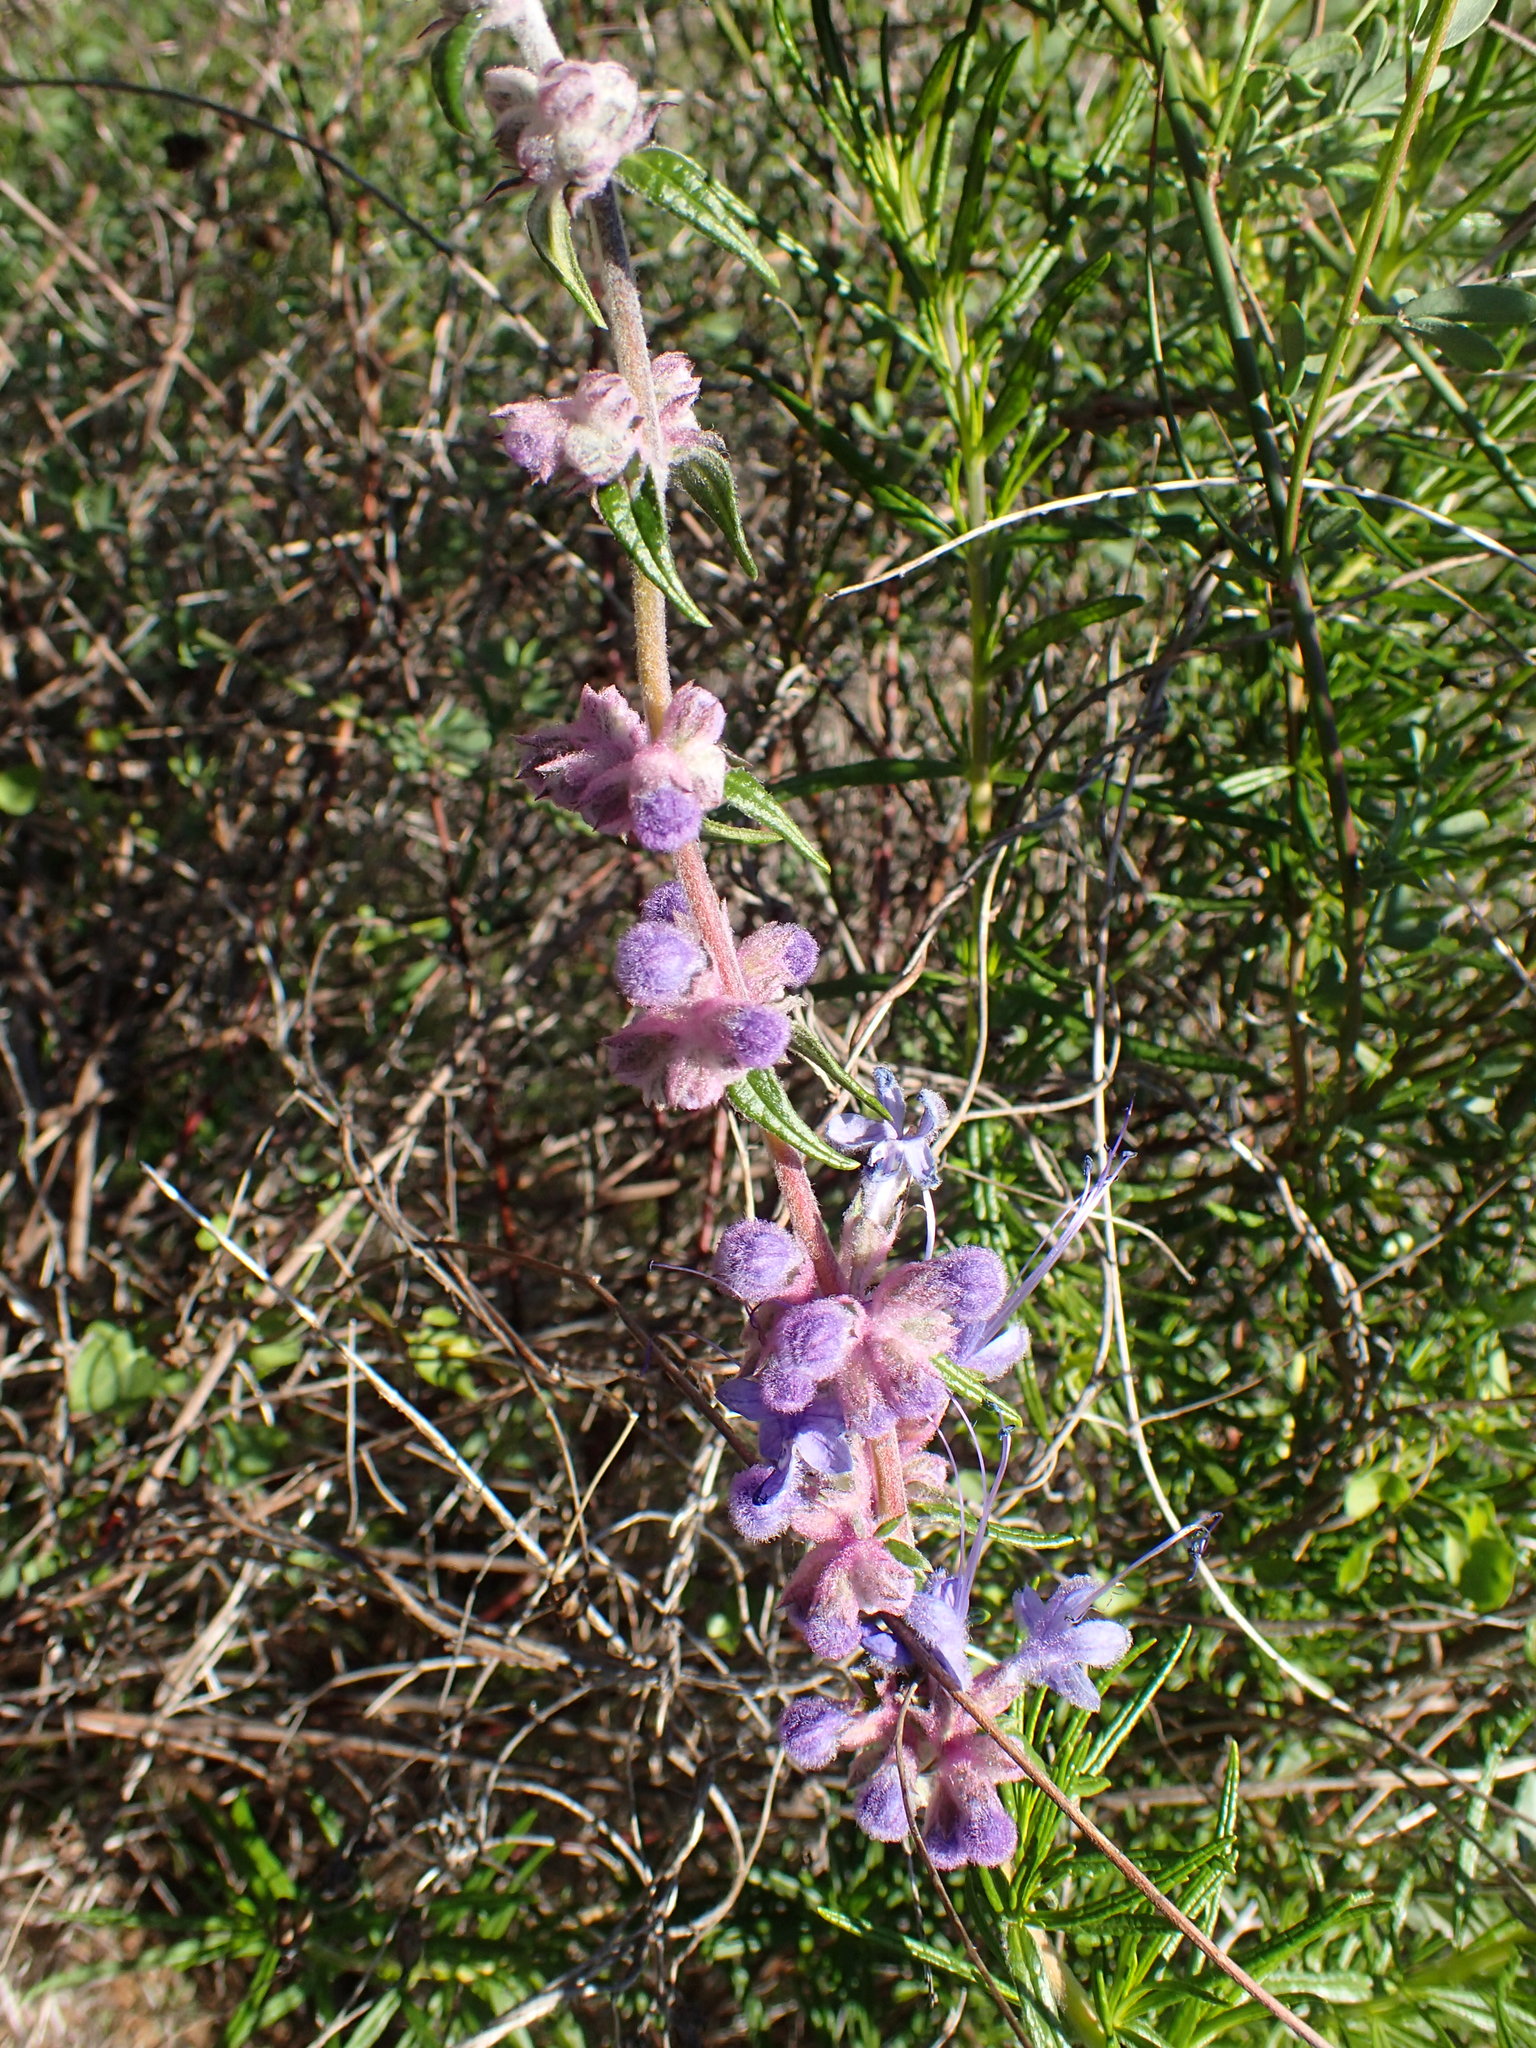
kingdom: Plantae
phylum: Tracheophyta
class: Magnoliopsida
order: Lamiales
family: Lamiaceae
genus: Trichostema
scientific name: Trichostema lanatum
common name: Woolly bluecurls
